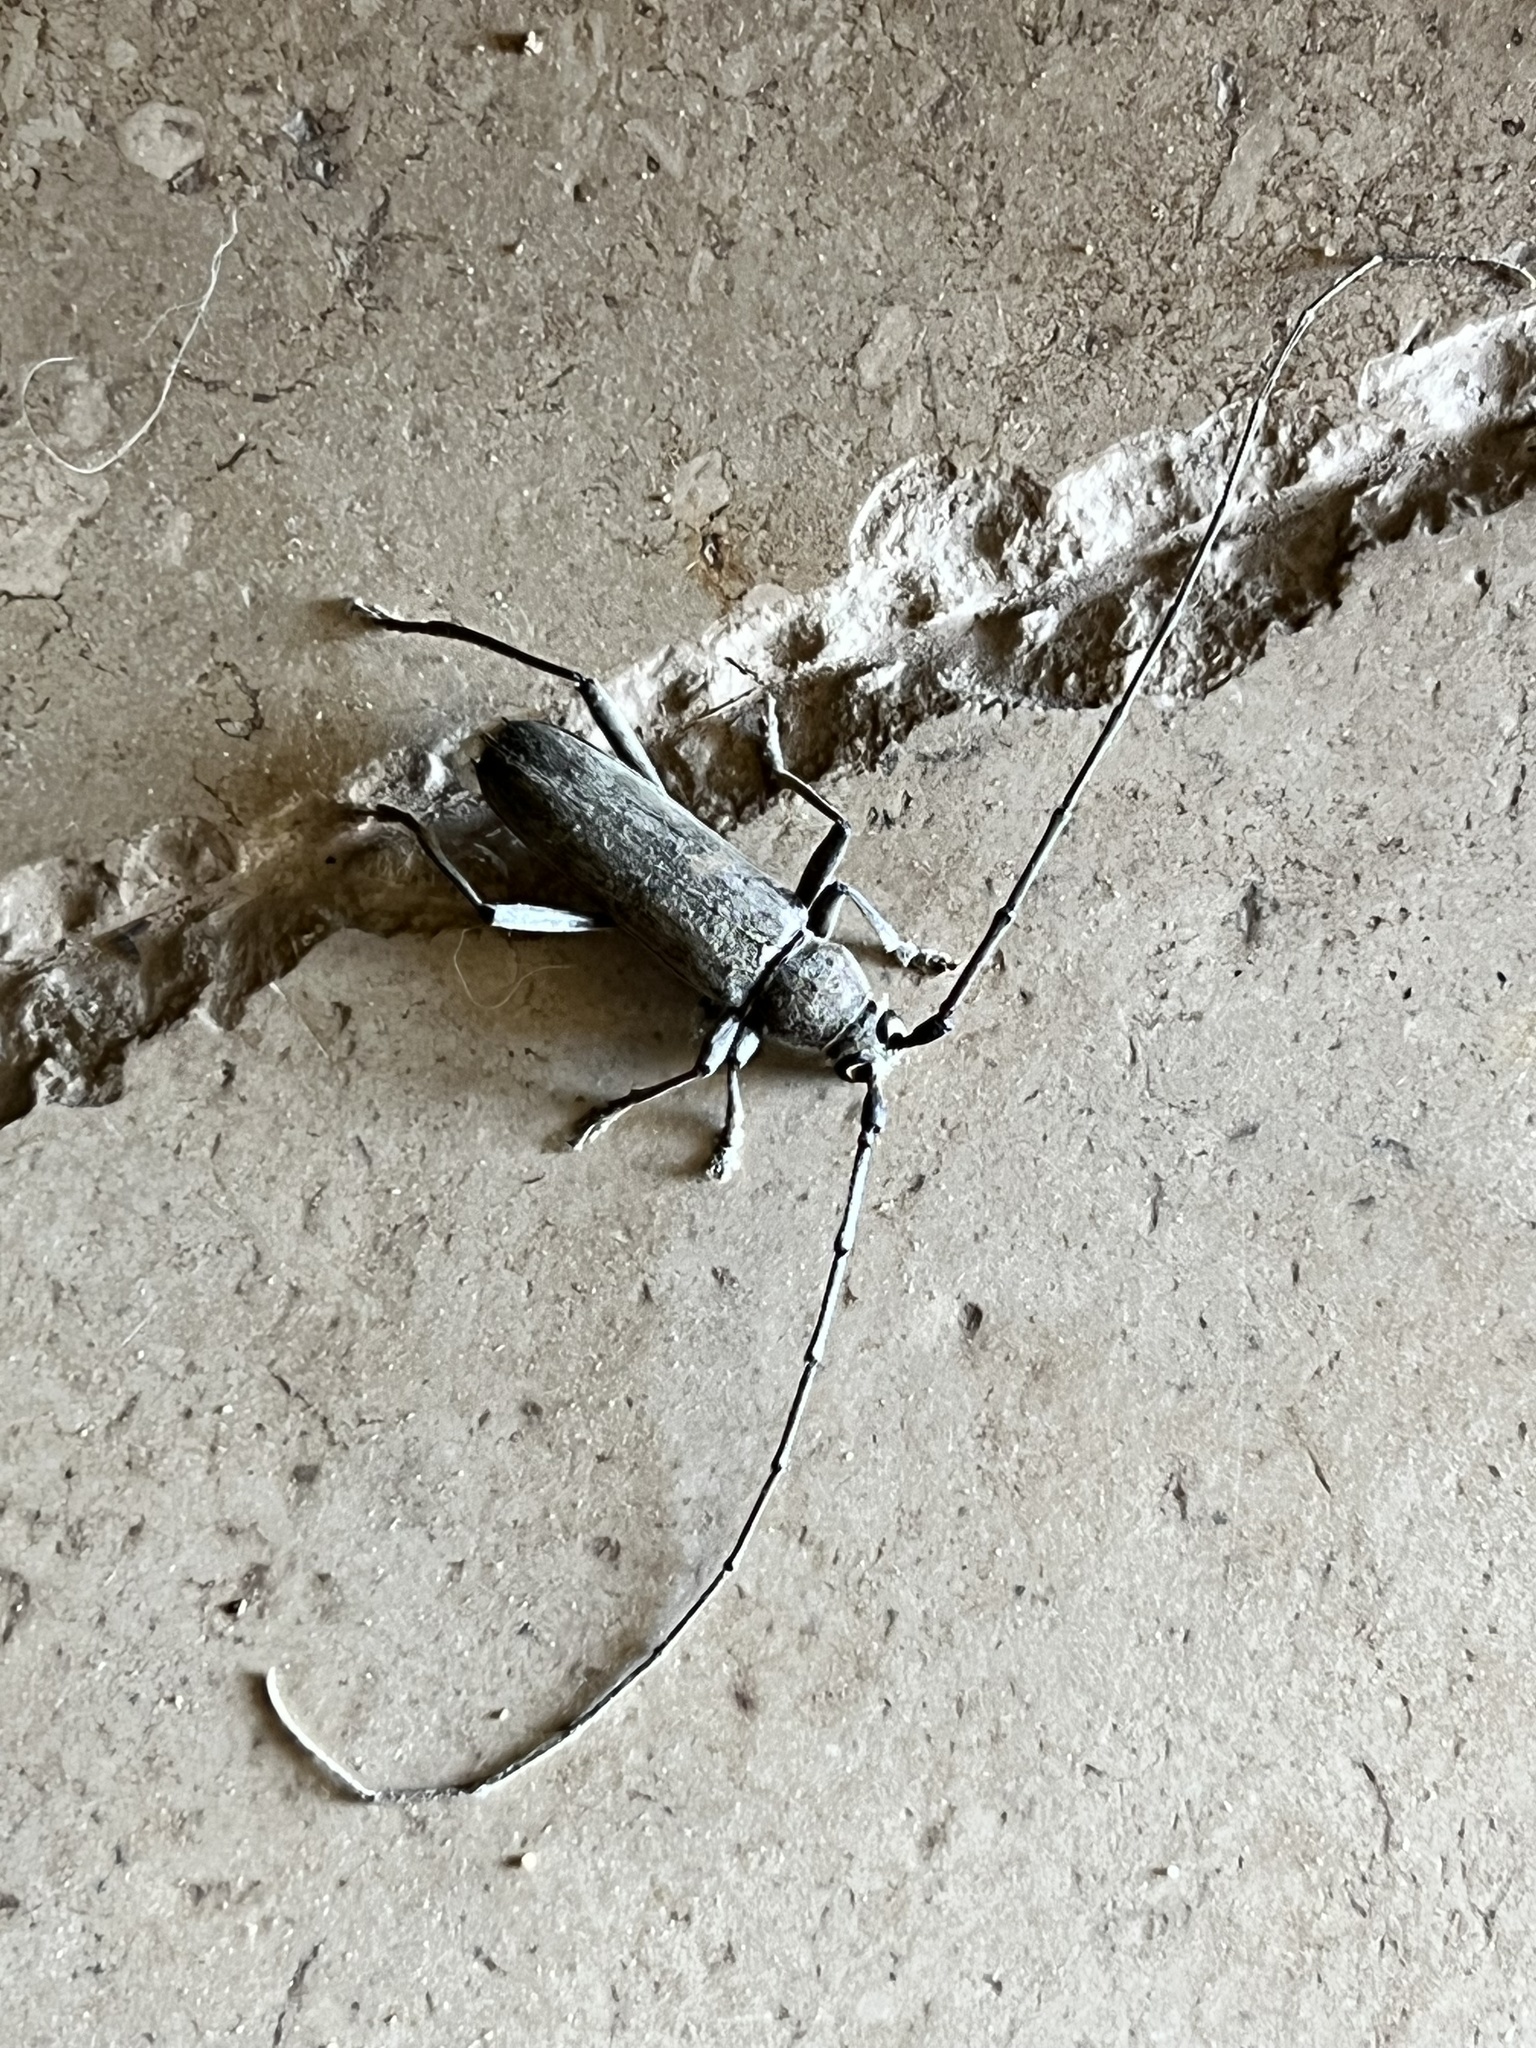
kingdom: Animalia
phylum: Arthropoda
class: Insecta
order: Coleoptera
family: Cerambycidae
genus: Knulliana
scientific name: Knulliana cincta
